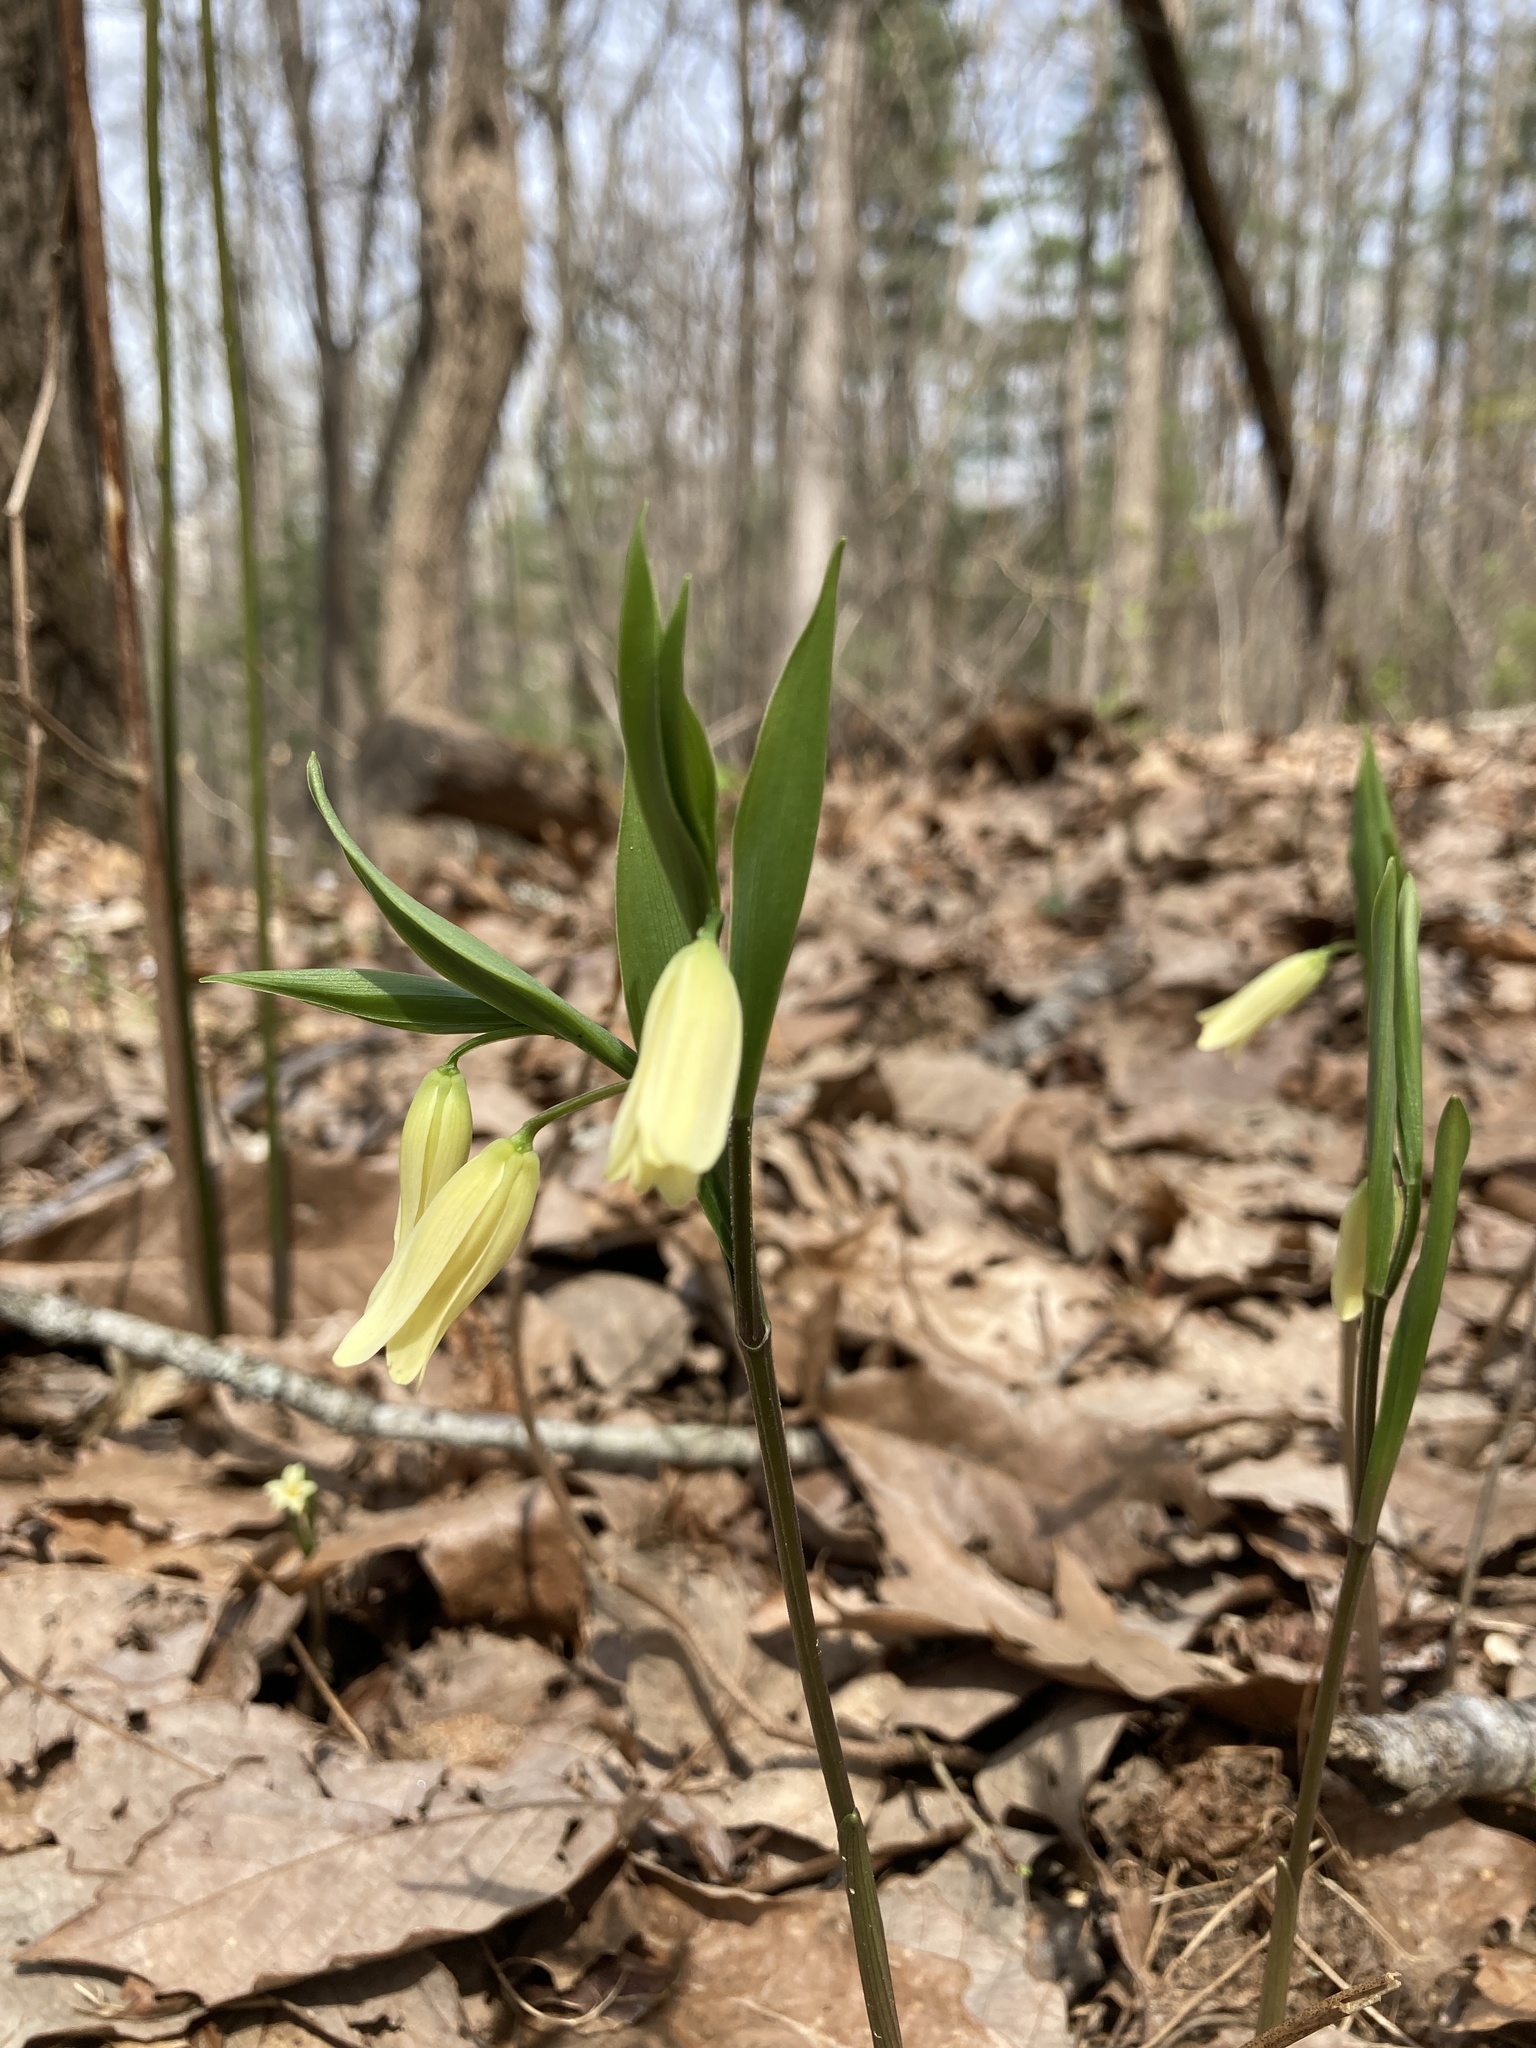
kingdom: Plantae
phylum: Tracheophyta
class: Liliopsida
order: Liliales
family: Colchicaceae
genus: Uvularia
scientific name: Uvularia puberula
